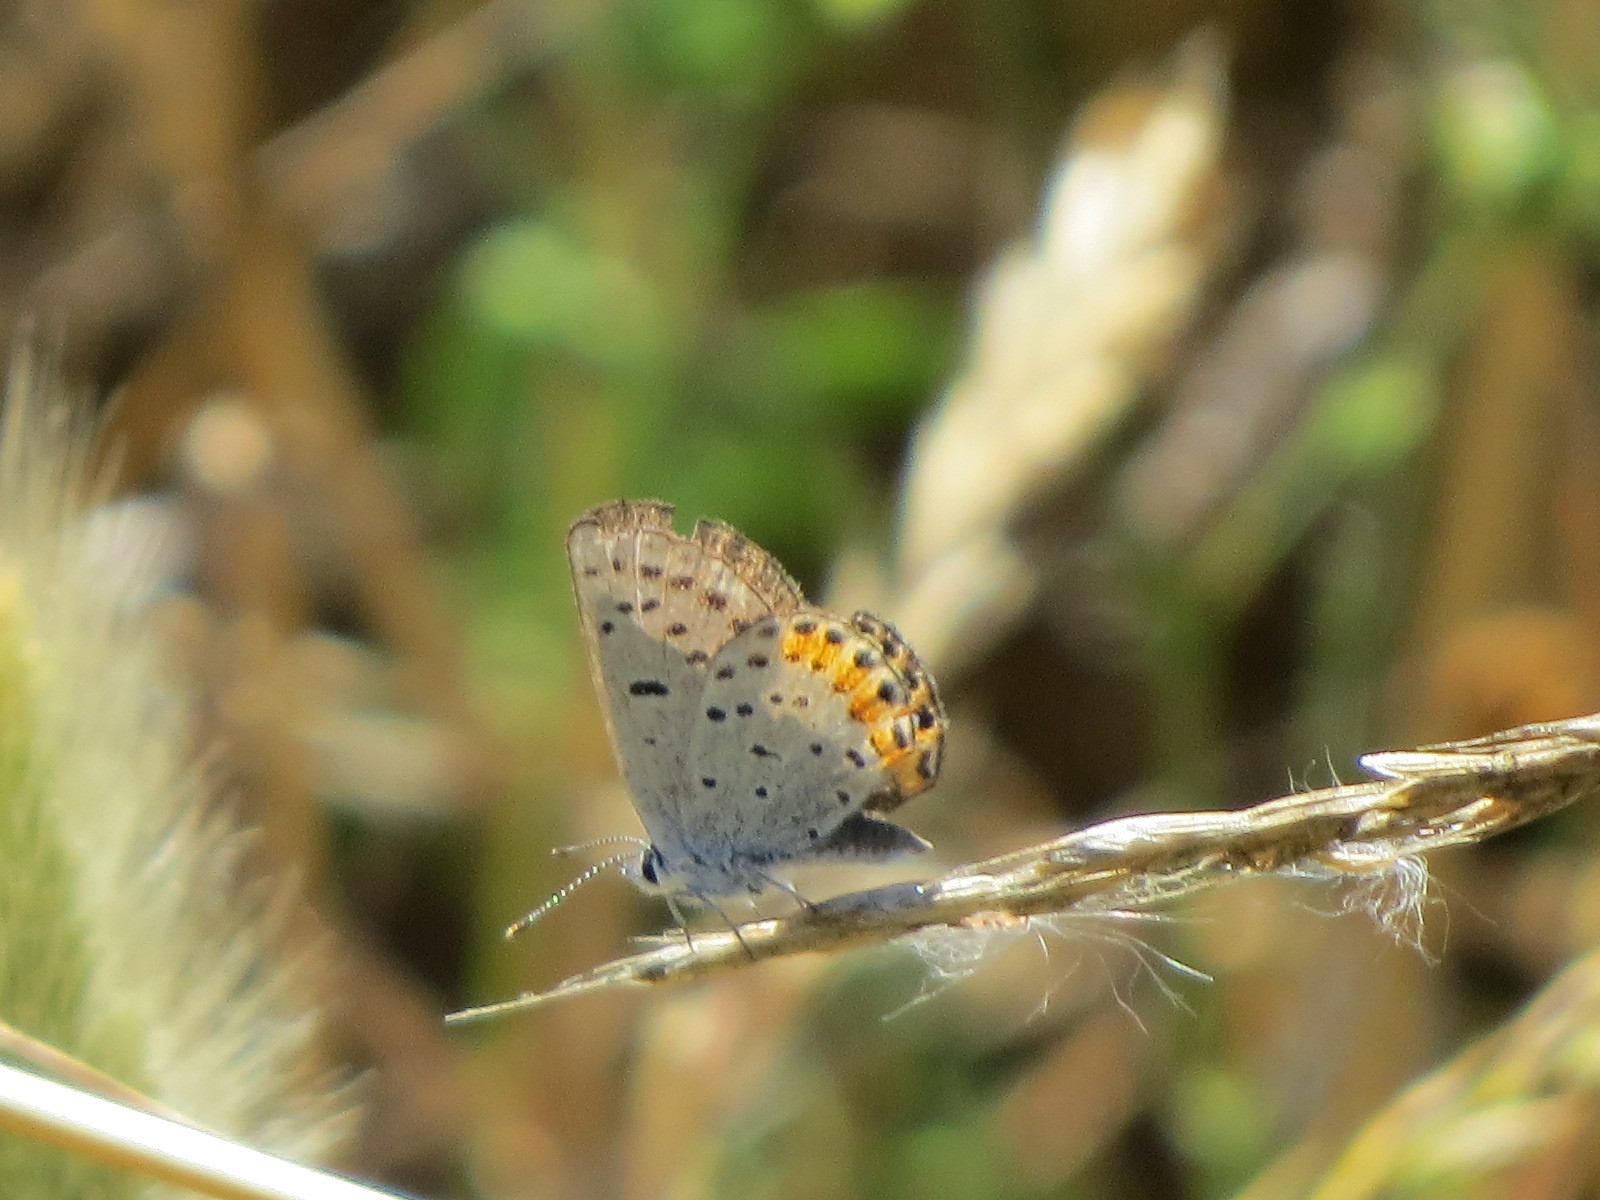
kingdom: Animalia
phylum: Arthropoda
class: Insecta
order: Lepidoptera
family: Lycaenidae
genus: Icaricia
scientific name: Icaricia acmon
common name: Acmon blue
